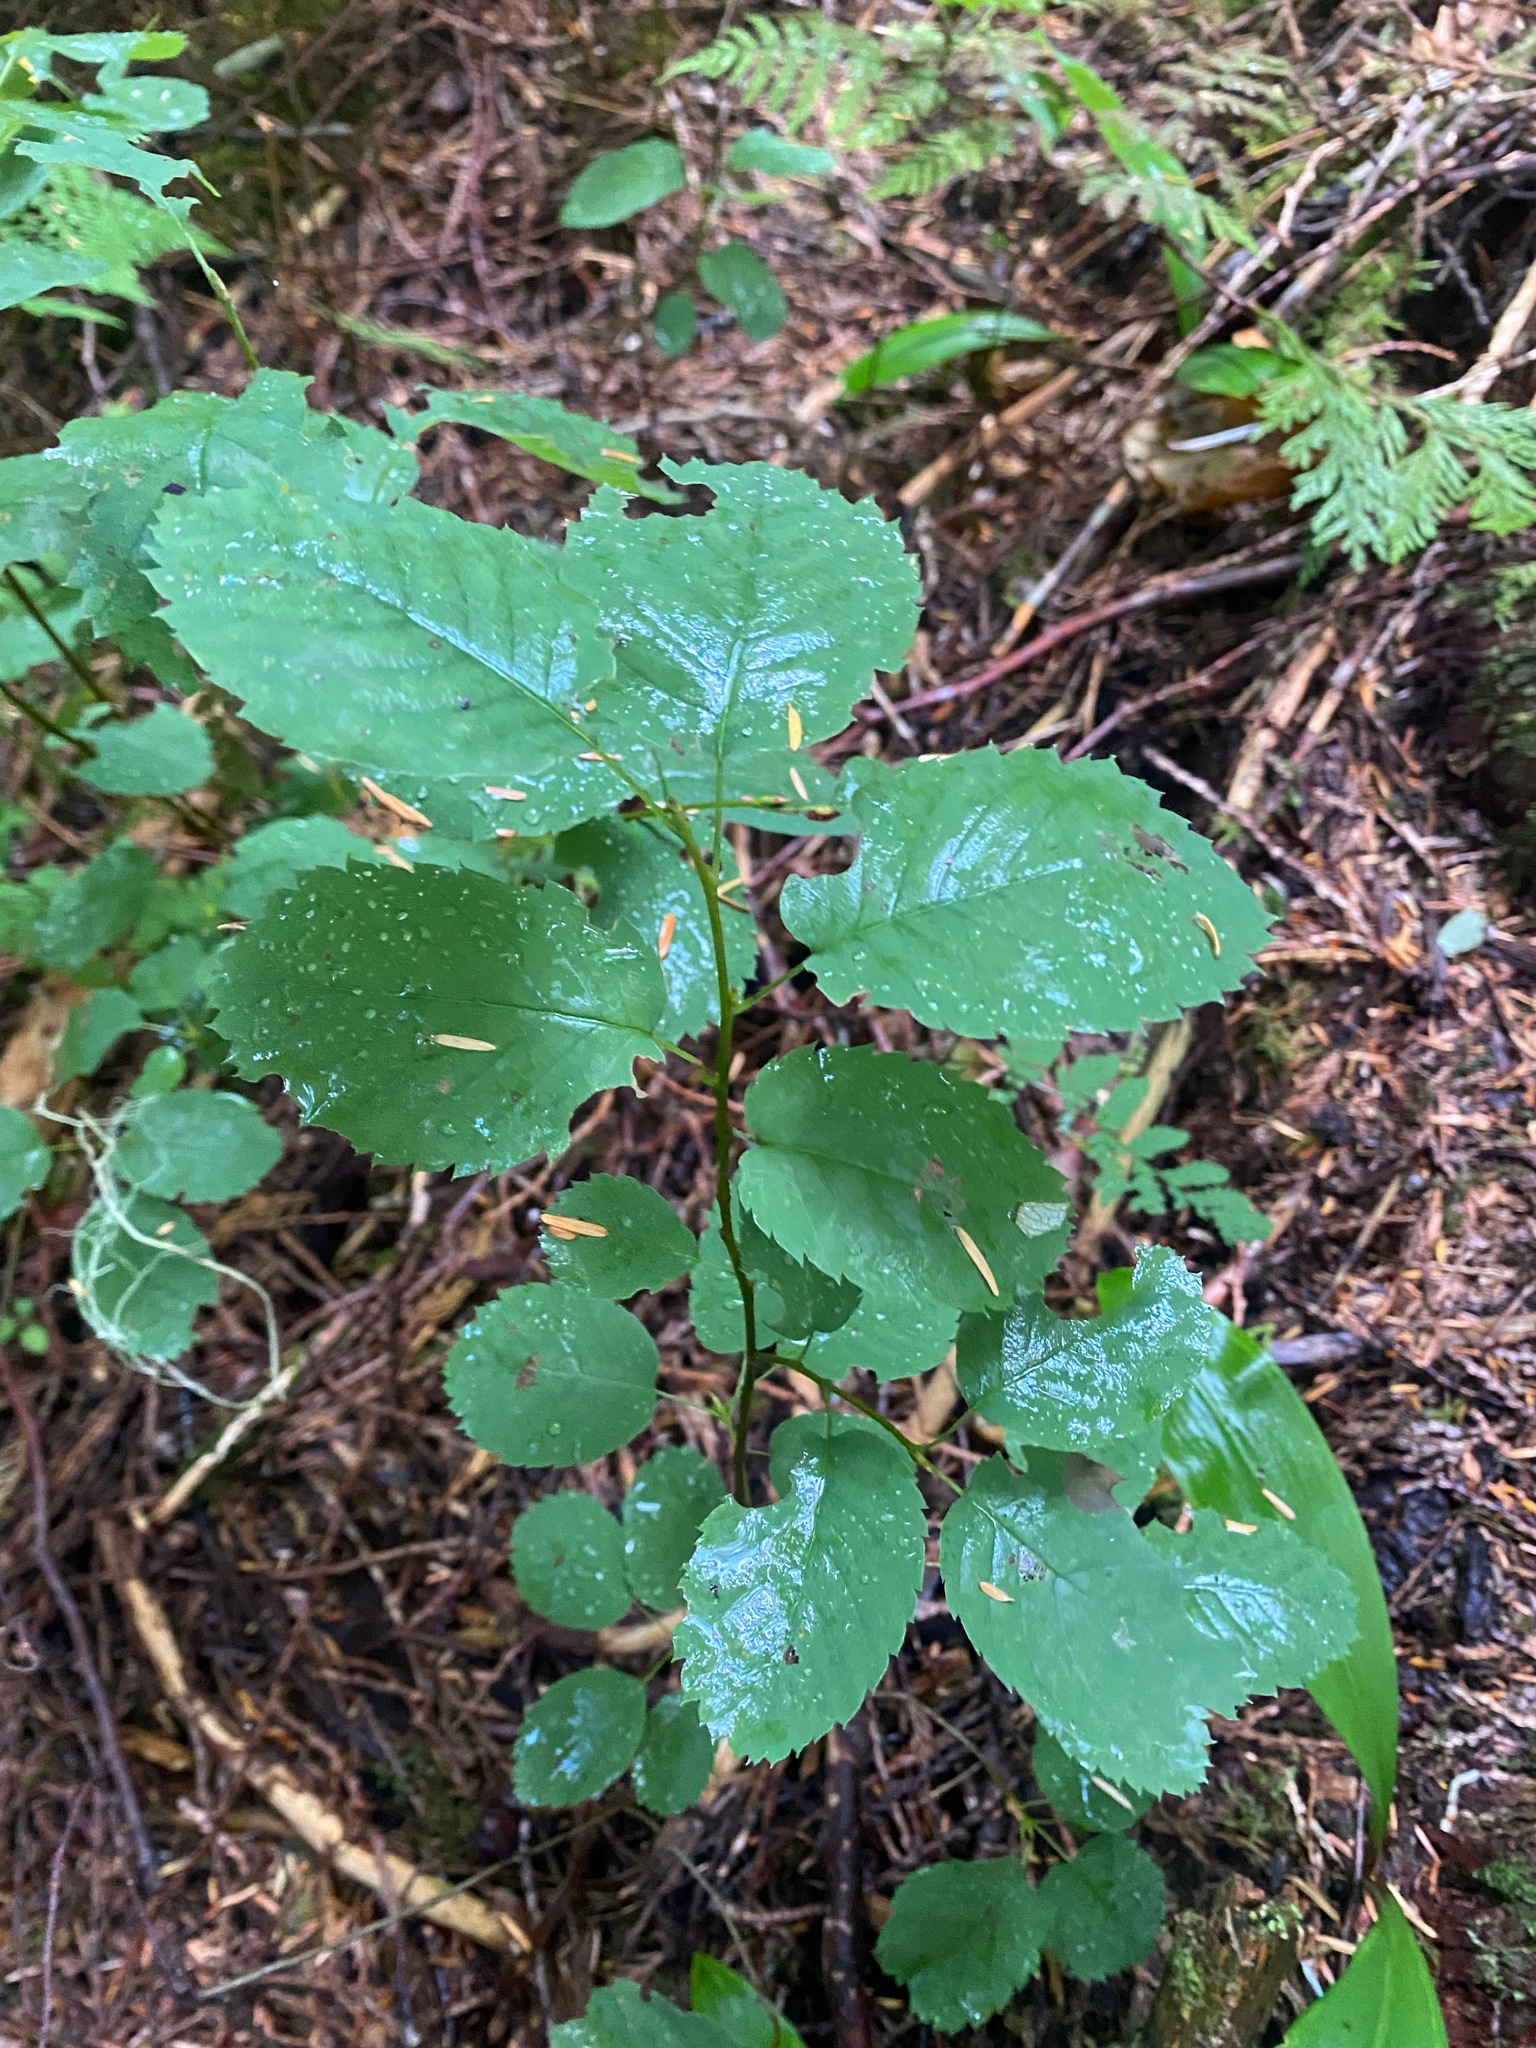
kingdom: Plantae
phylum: Tracheophyta
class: Magnoliopsida
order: Rosales
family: Rosaceae
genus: Amelanchier
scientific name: Amelanchier alnifolia
